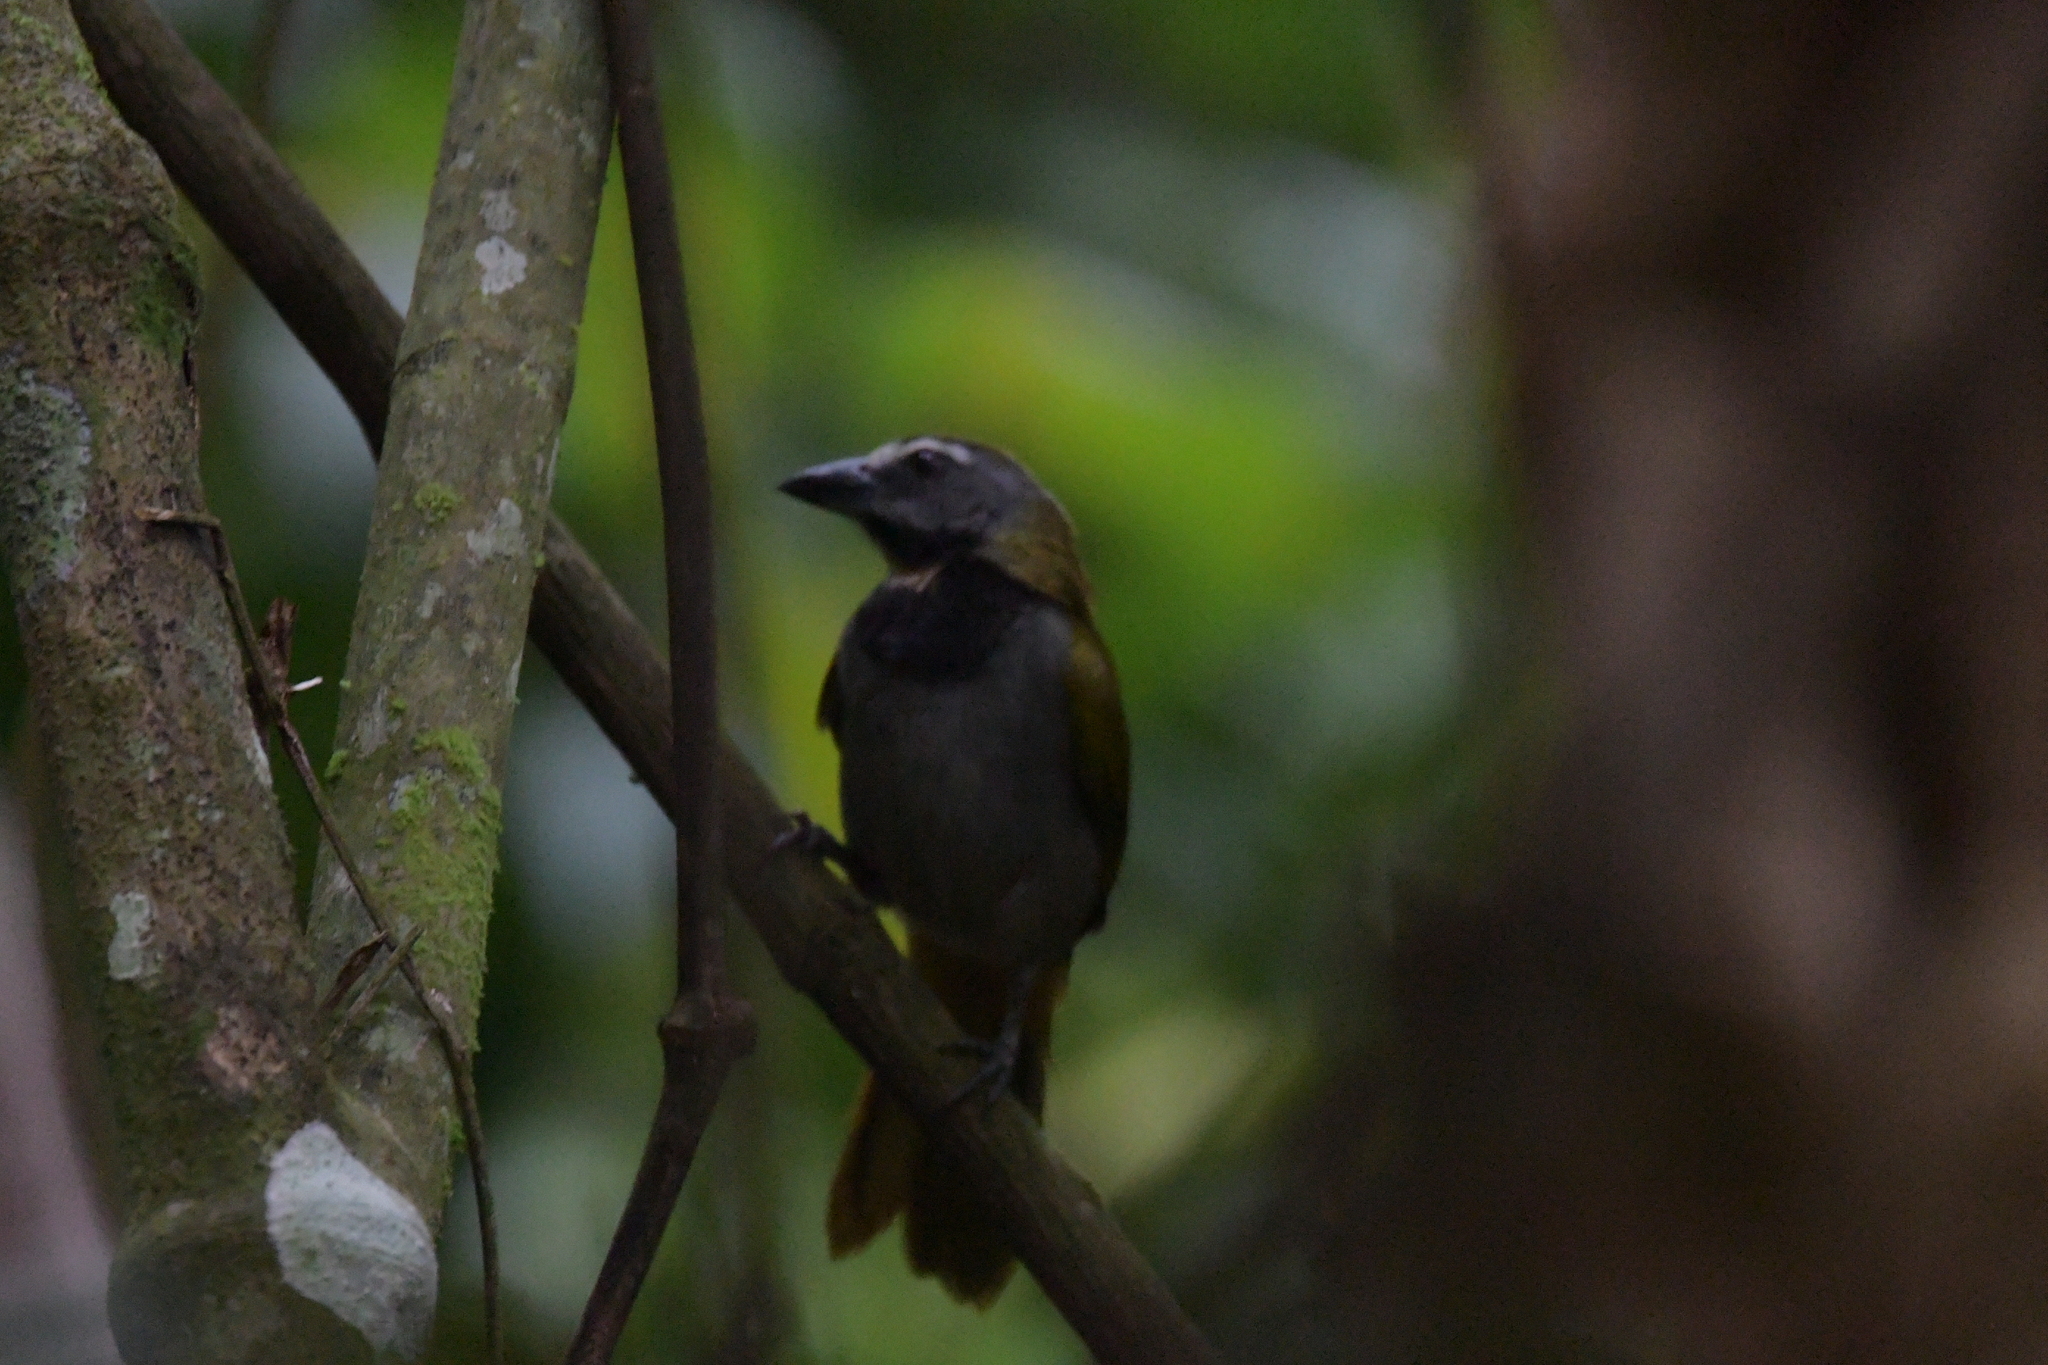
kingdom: Animalia
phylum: Chordata
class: Aves
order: Passeriformes
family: Thraupidae
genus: Saltator
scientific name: Saltator maximus
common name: Buff-throated saltator
